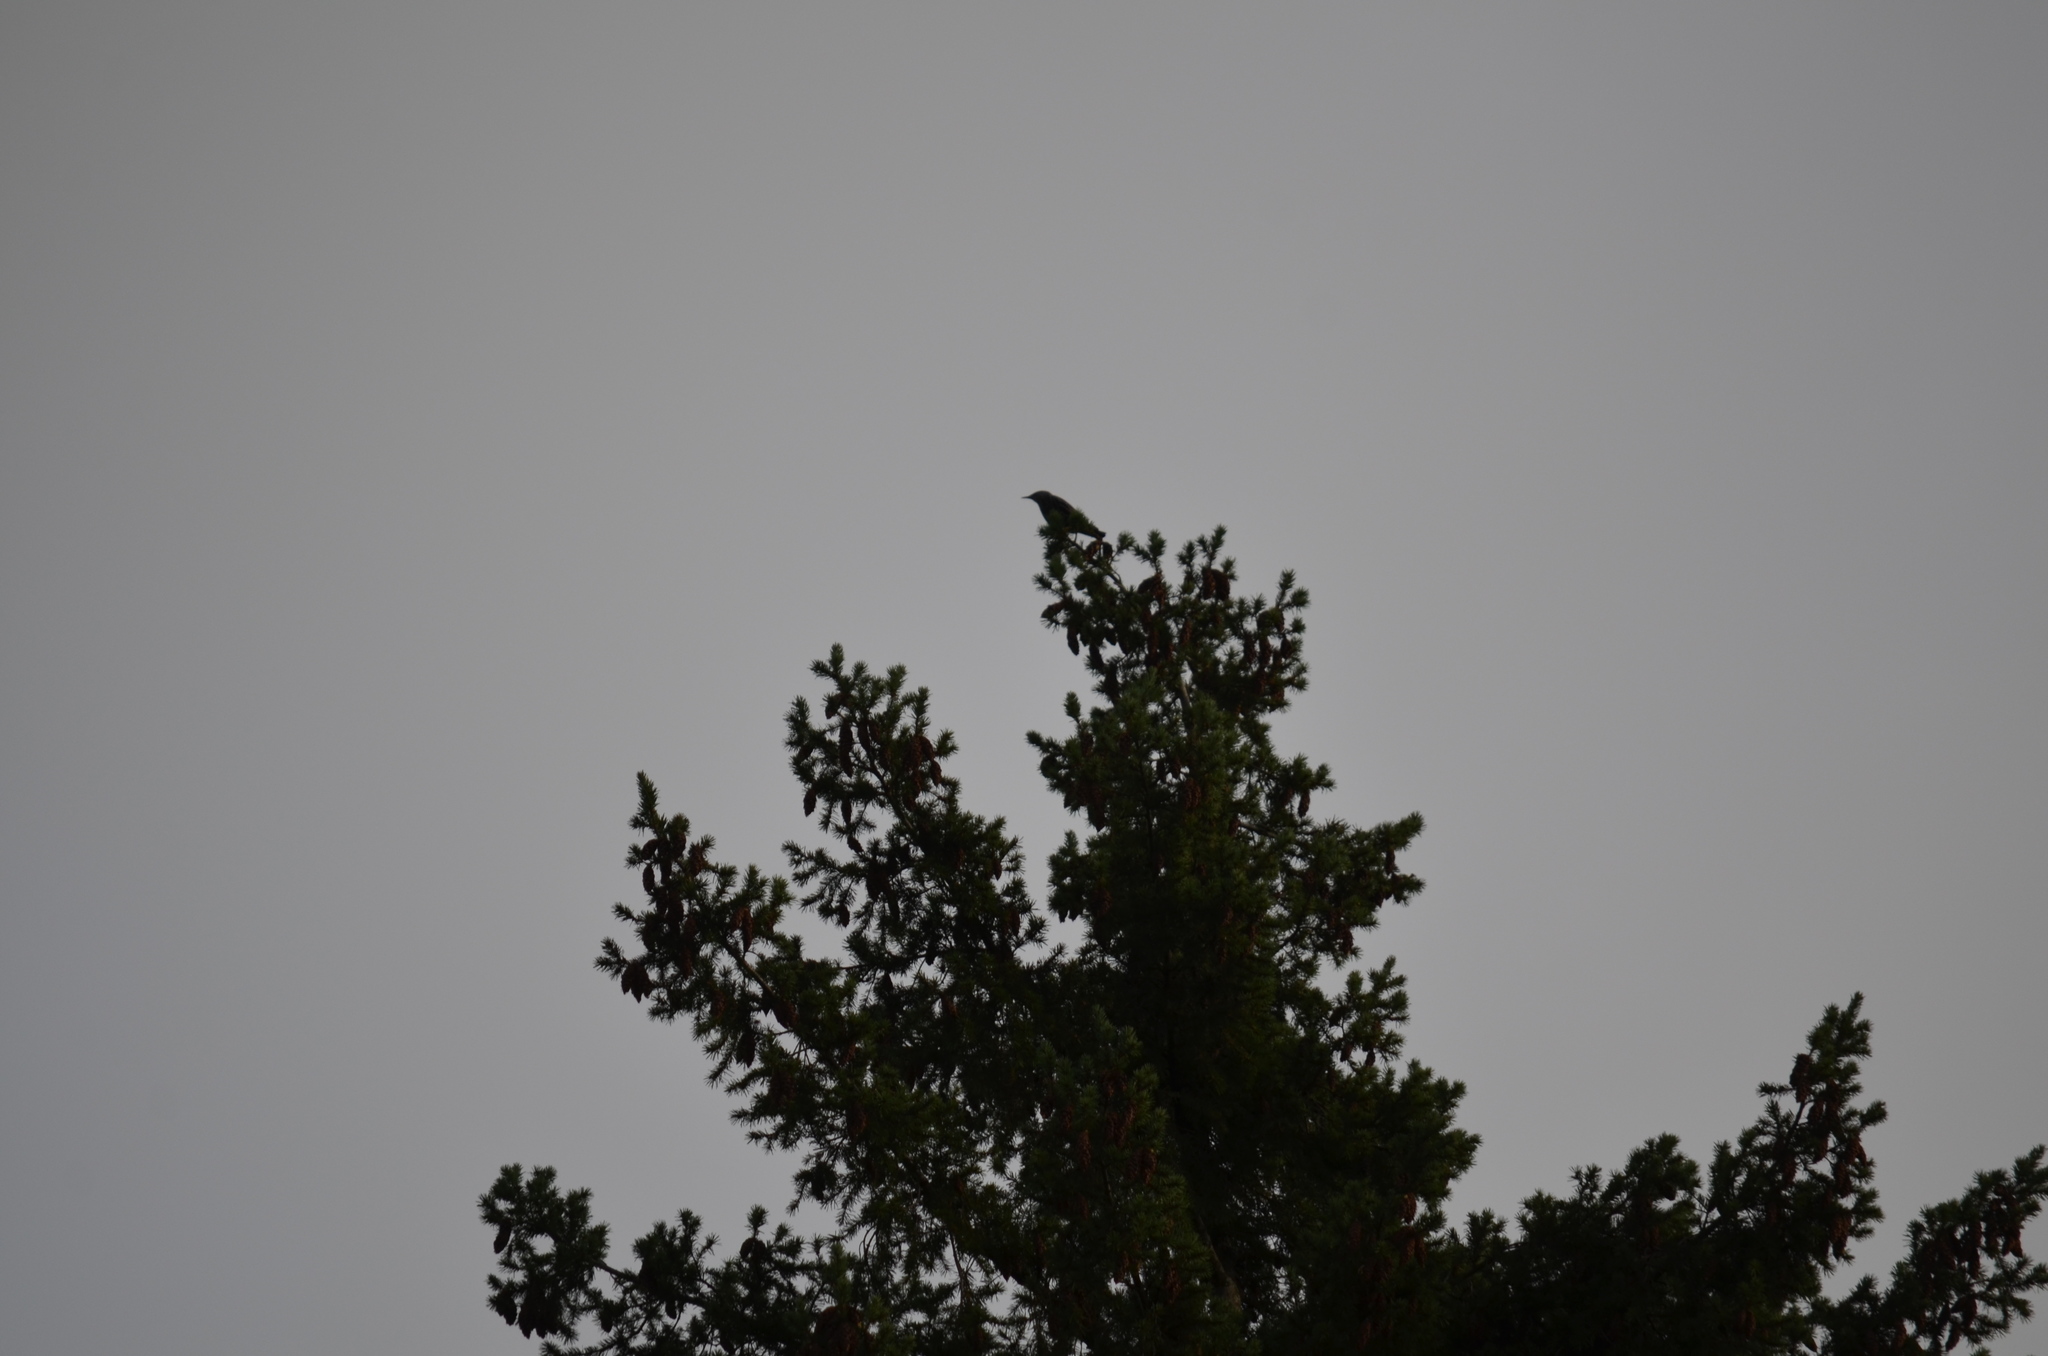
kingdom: Animalia
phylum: Chordata
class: Aves
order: Passeriformes
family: Sturnidae
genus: Sturnus
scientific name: Sturnus vulgaris
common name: Common starling
